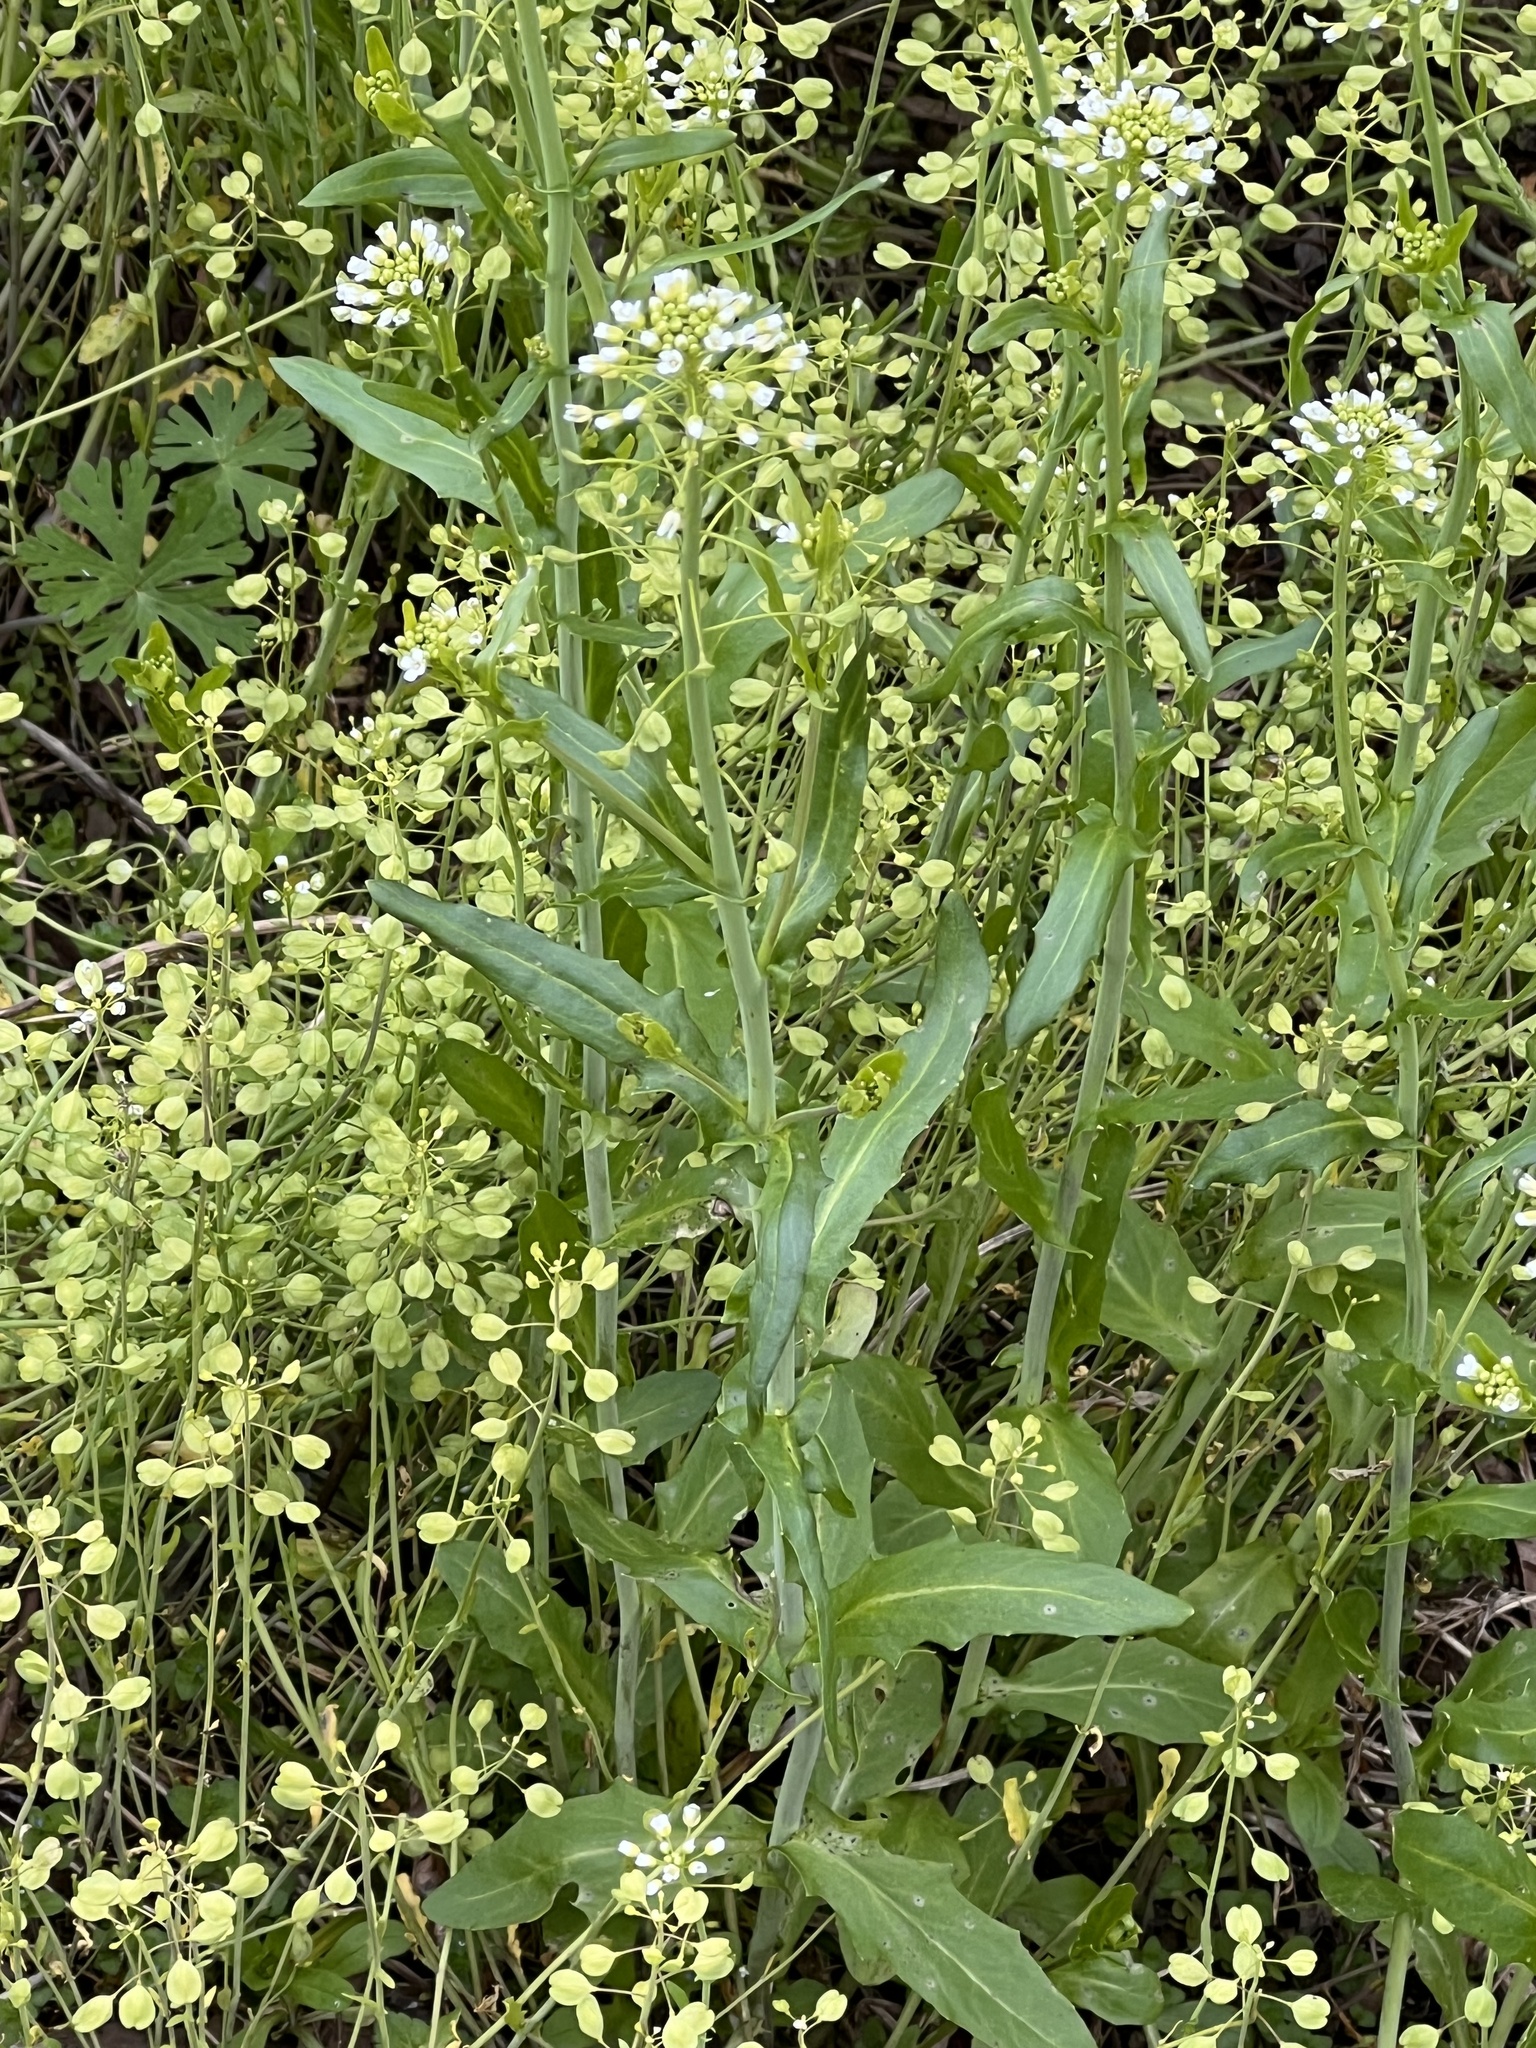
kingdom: Plantae
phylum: Tracheophyta
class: Magnoliopsida
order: Brassicales
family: Brassicaceae
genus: Mummenhoffia
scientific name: Mummenhoffia alliacea
